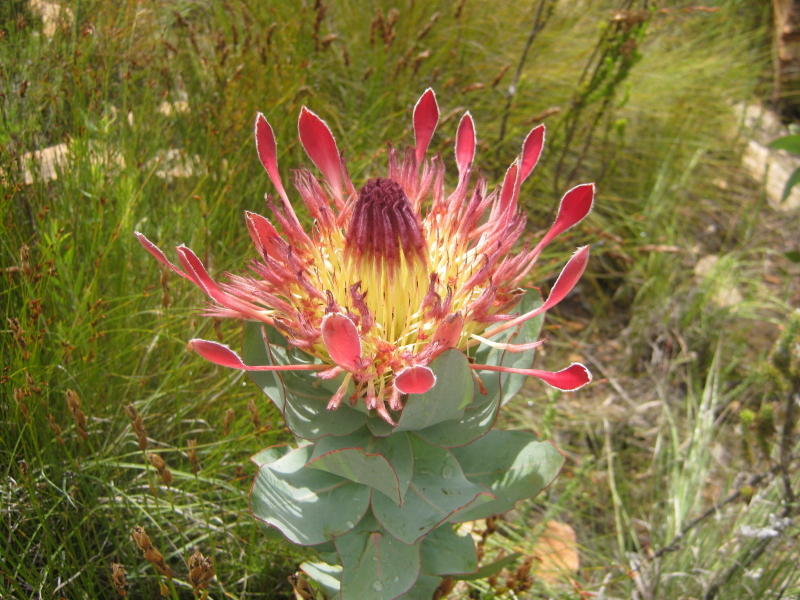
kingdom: Plantae
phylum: Tracheophyta
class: Magnoliopsida
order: Proteales
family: Proteaceae
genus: Protea
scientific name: Protea eximia
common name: Broad-leaved sugarbush
